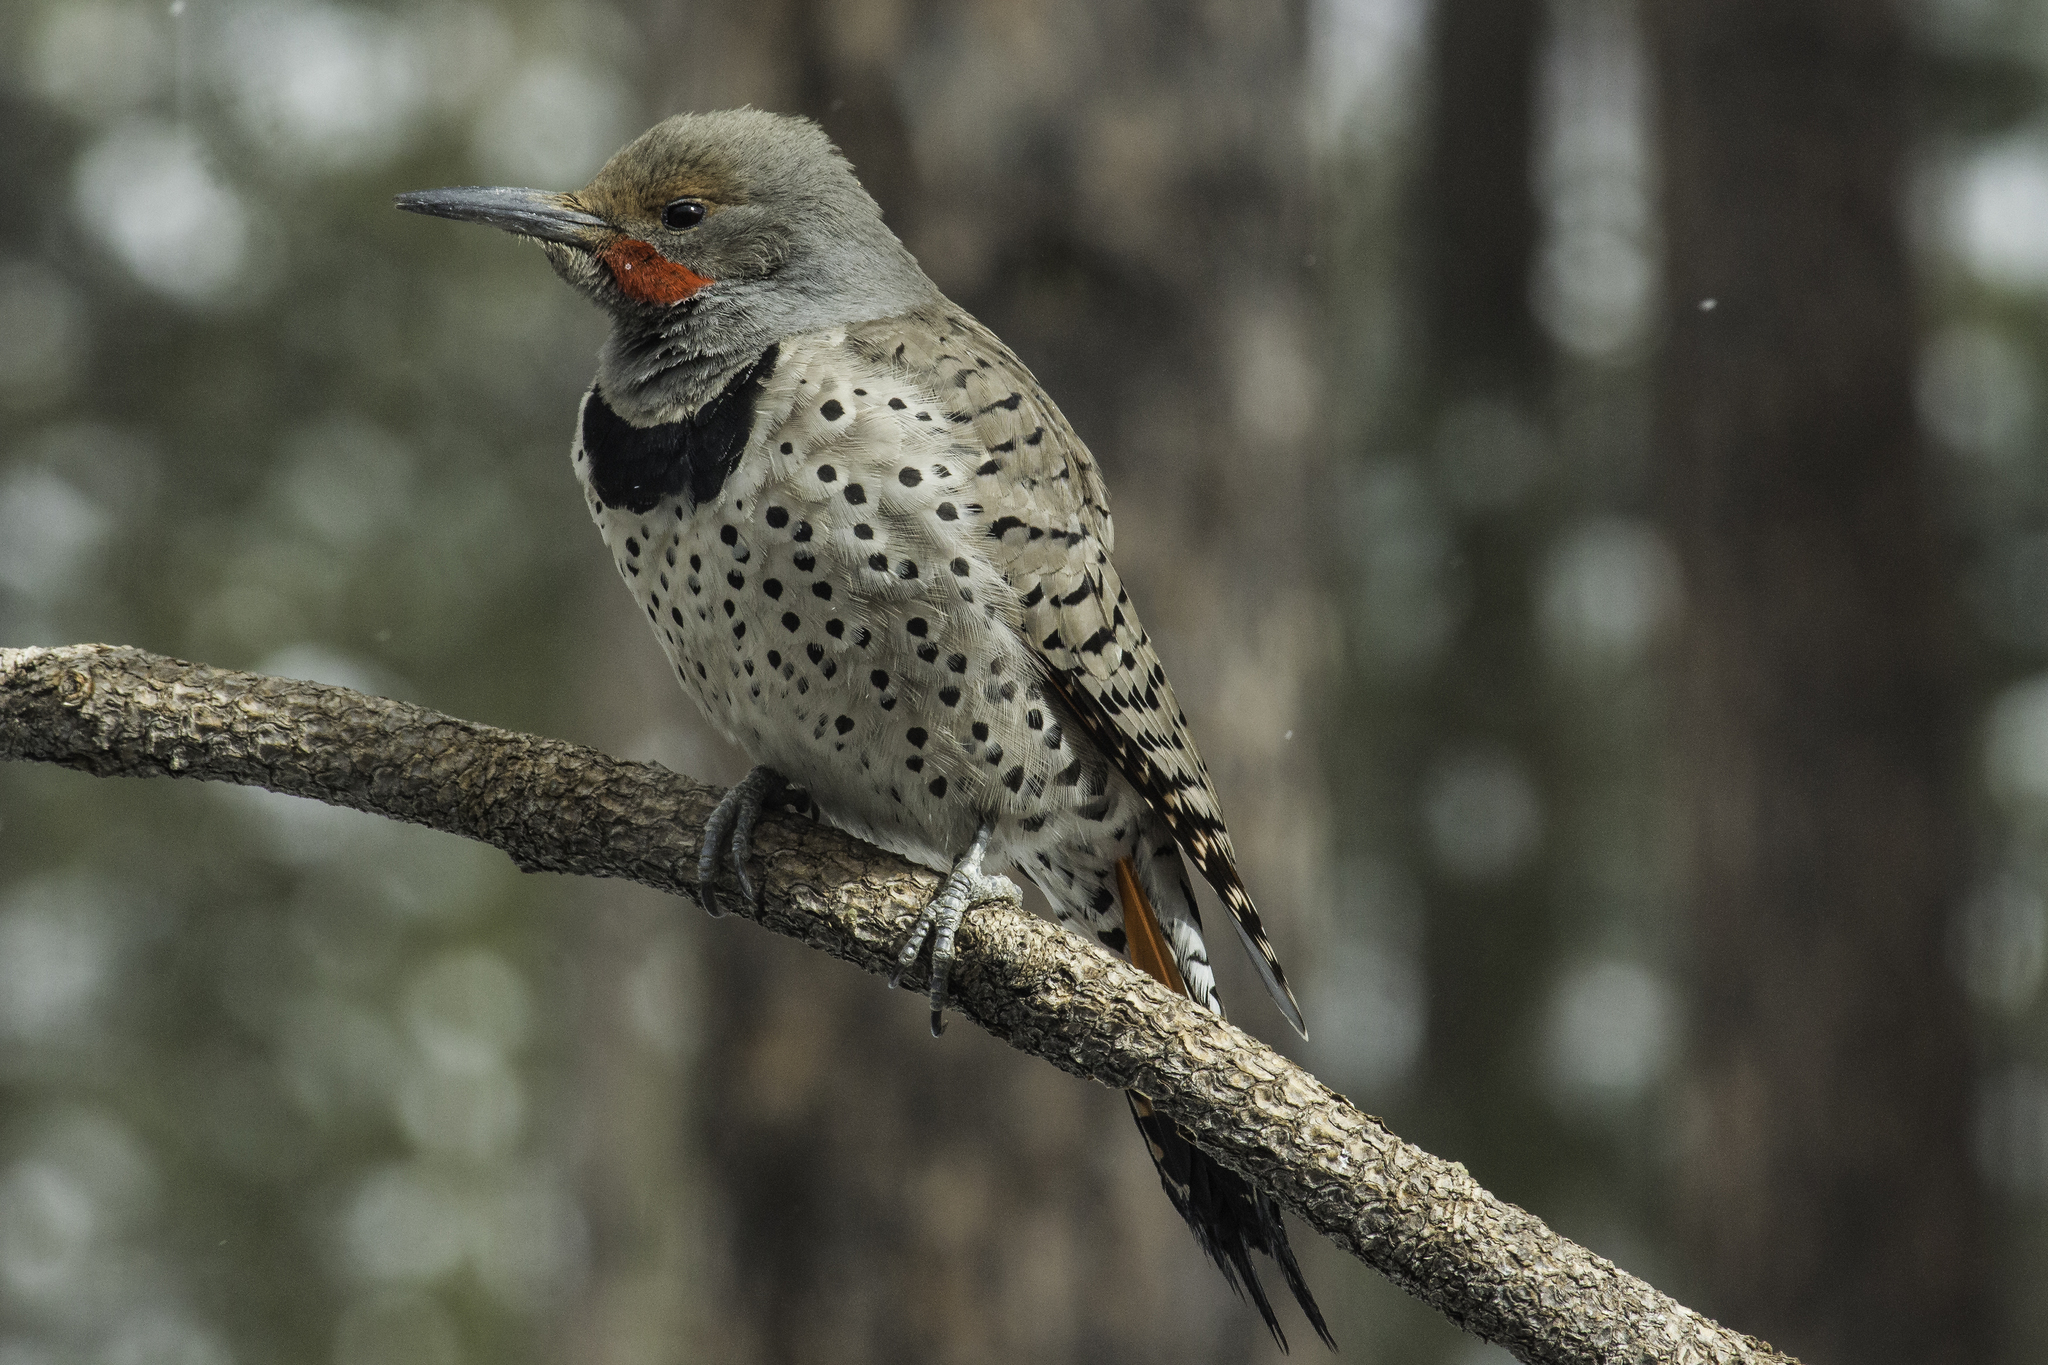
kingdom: Animalia
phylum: Chordata
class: Aves
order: Piciformes
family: Picidae
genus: Colaptes
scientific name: Colaptes auratus
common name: Northern flicker
